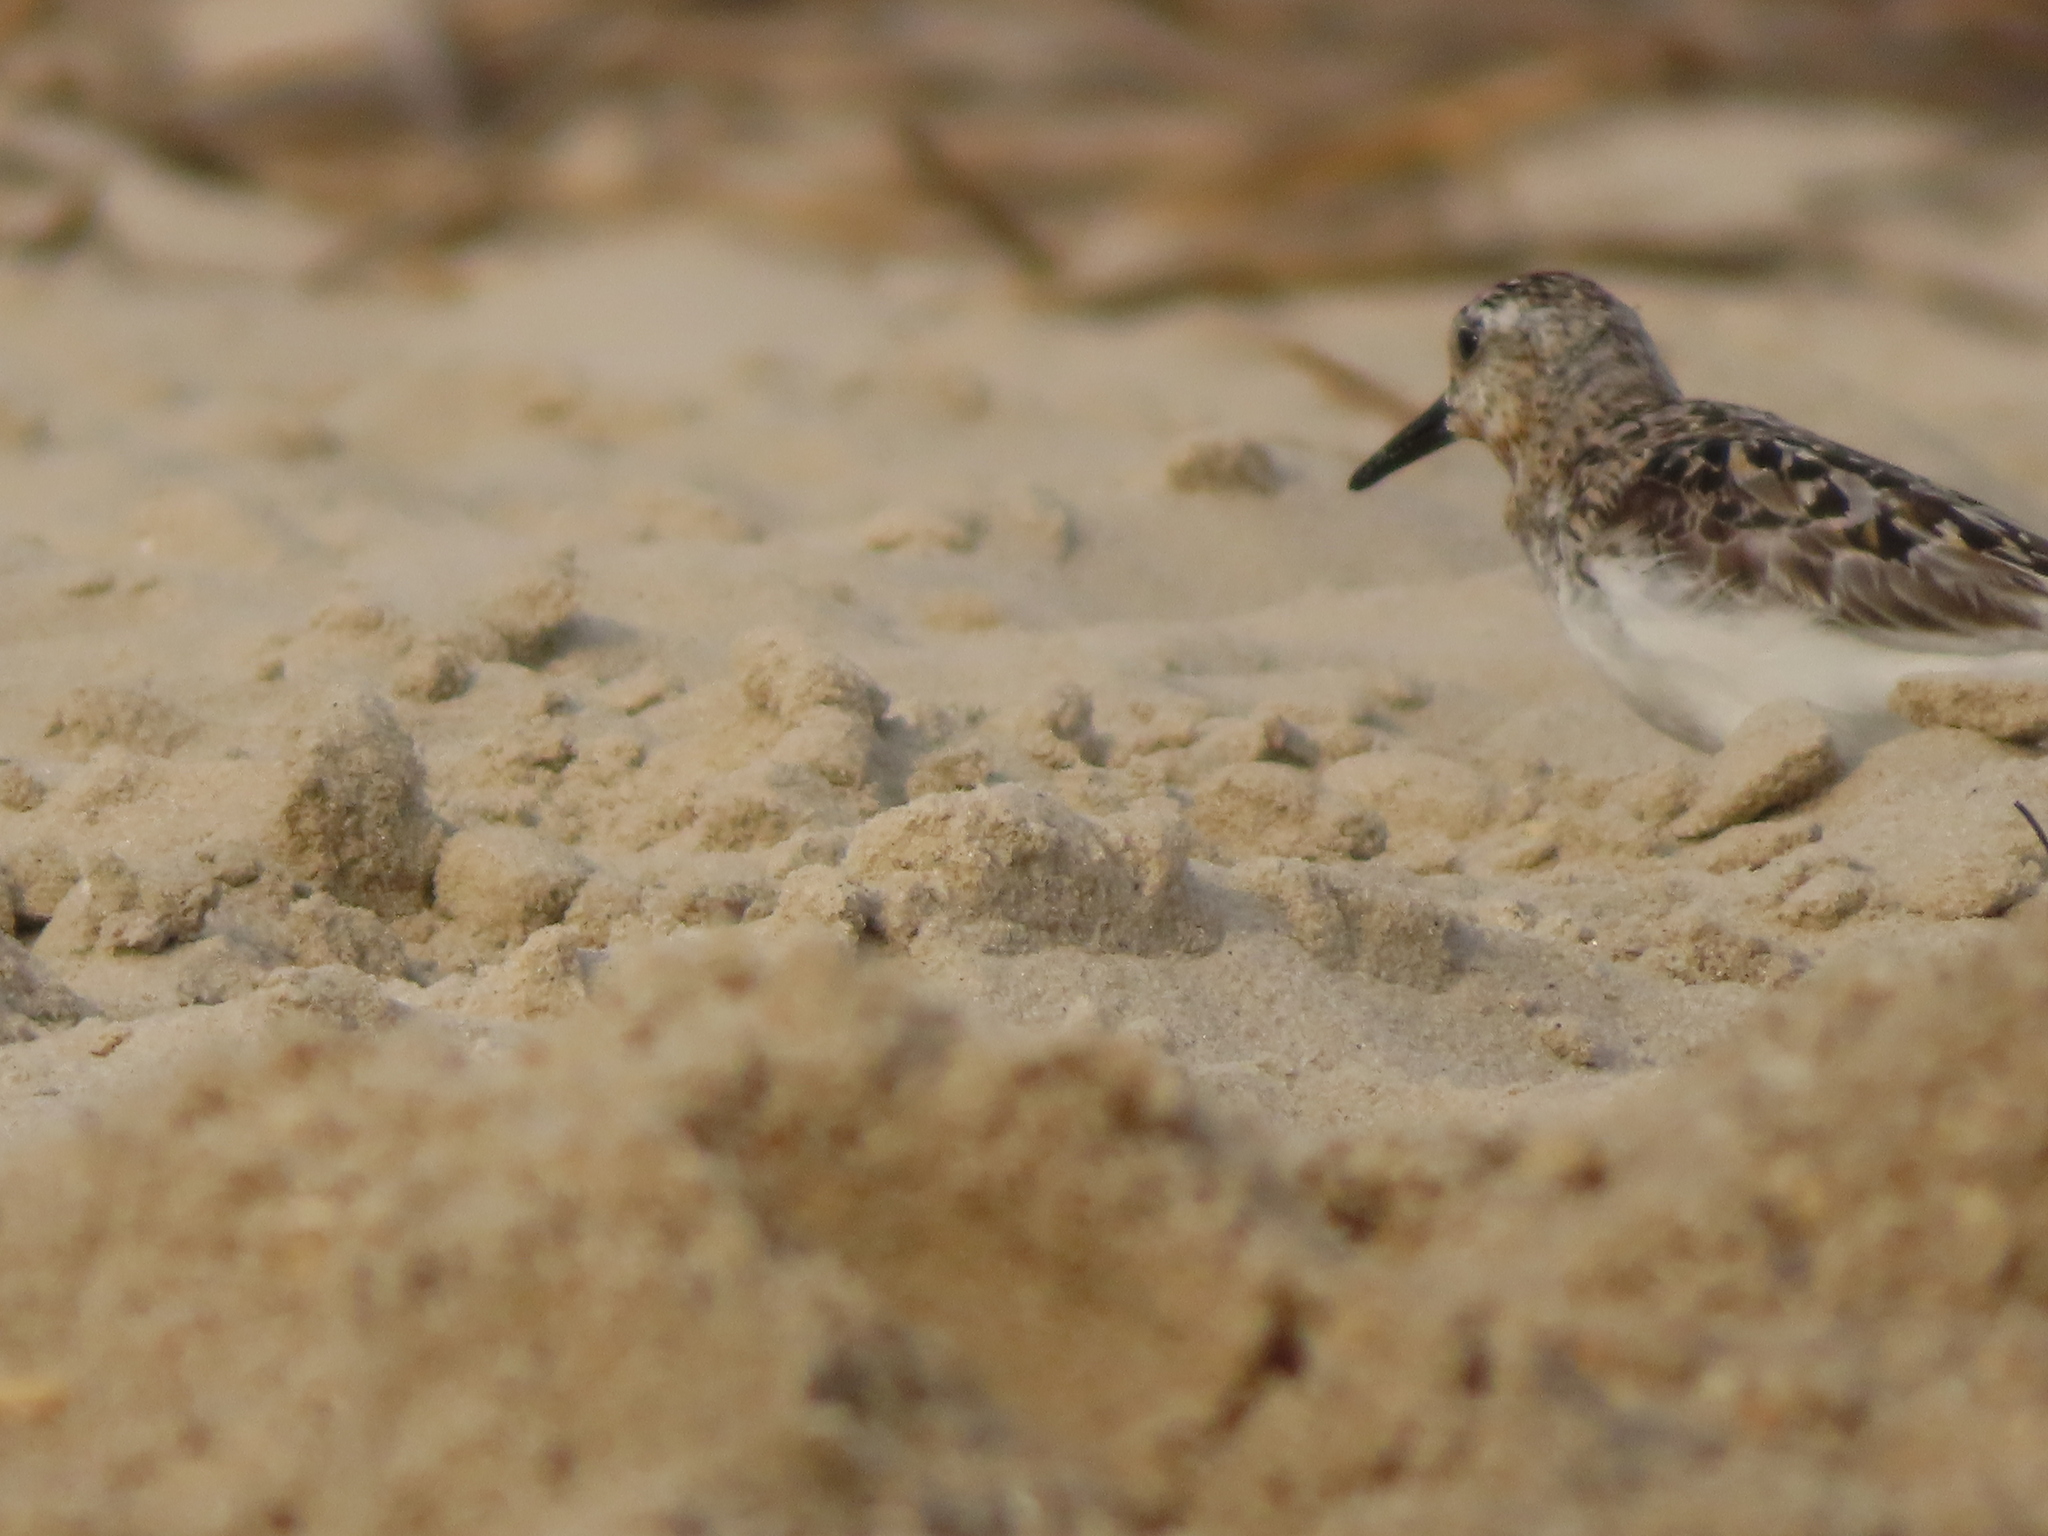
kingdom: Animalia
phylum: Chordata
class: Aves
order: Charadriiformes
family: Scolopacidae
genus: Calidris
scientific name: Calidris alba
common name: Sanderling
